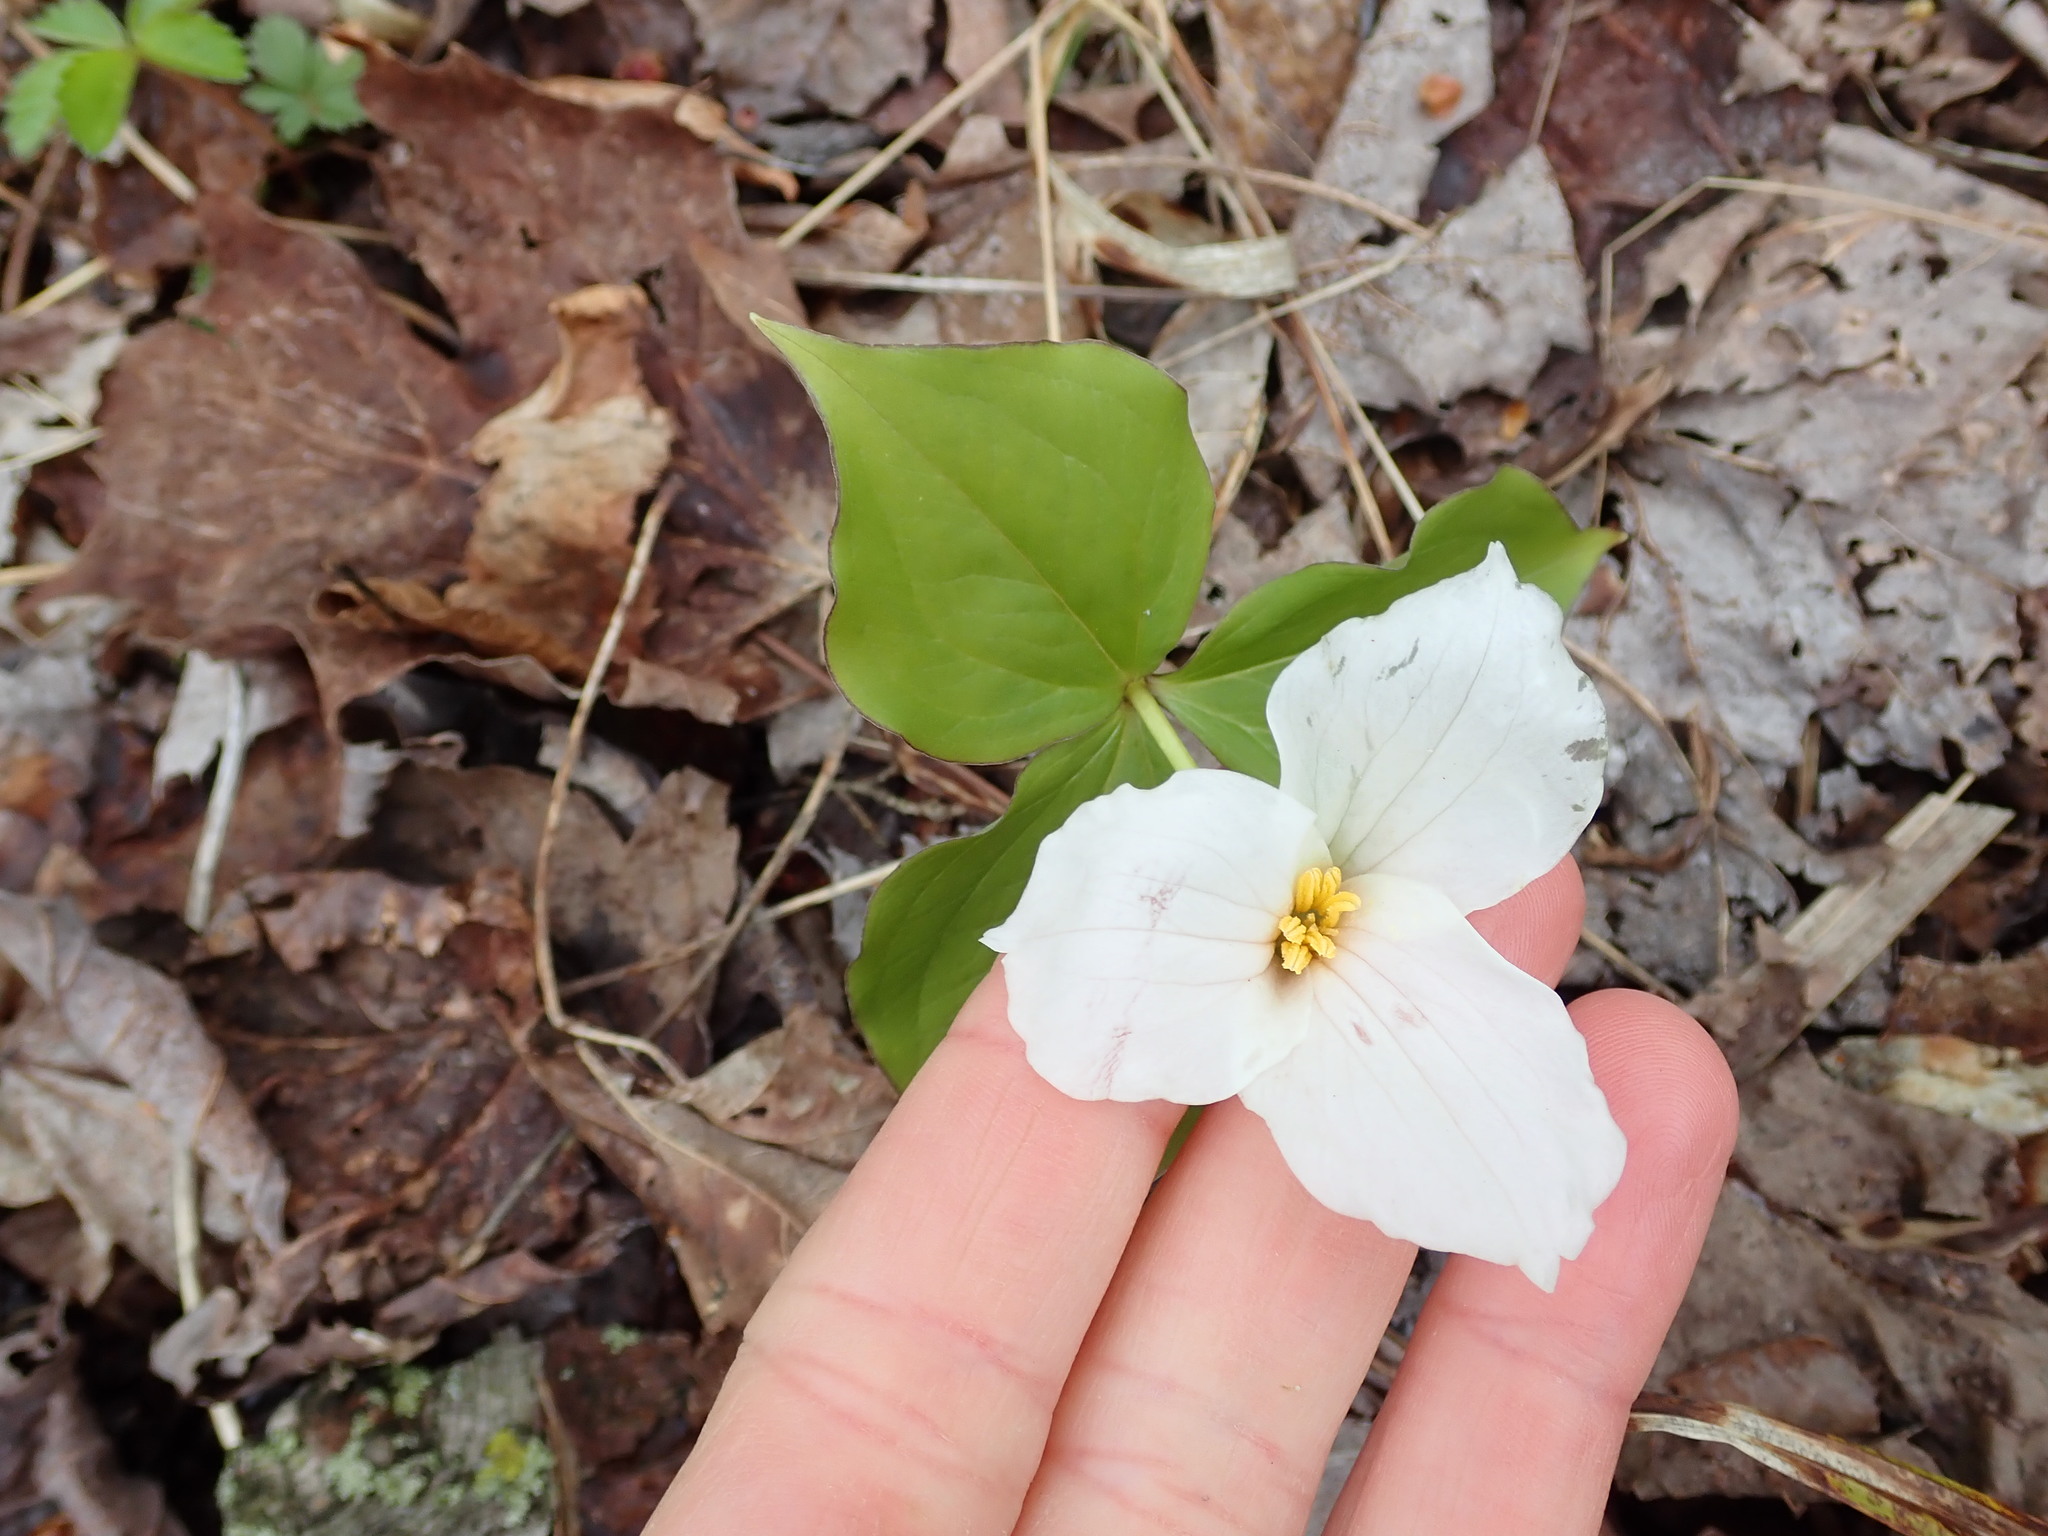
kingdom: Plantae
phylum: Tracheophyta
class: Liliopsida
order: Liliales
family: Melanthiaceae
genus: Trillium
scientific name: Trillium grandiflorum
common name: Great white trillium
